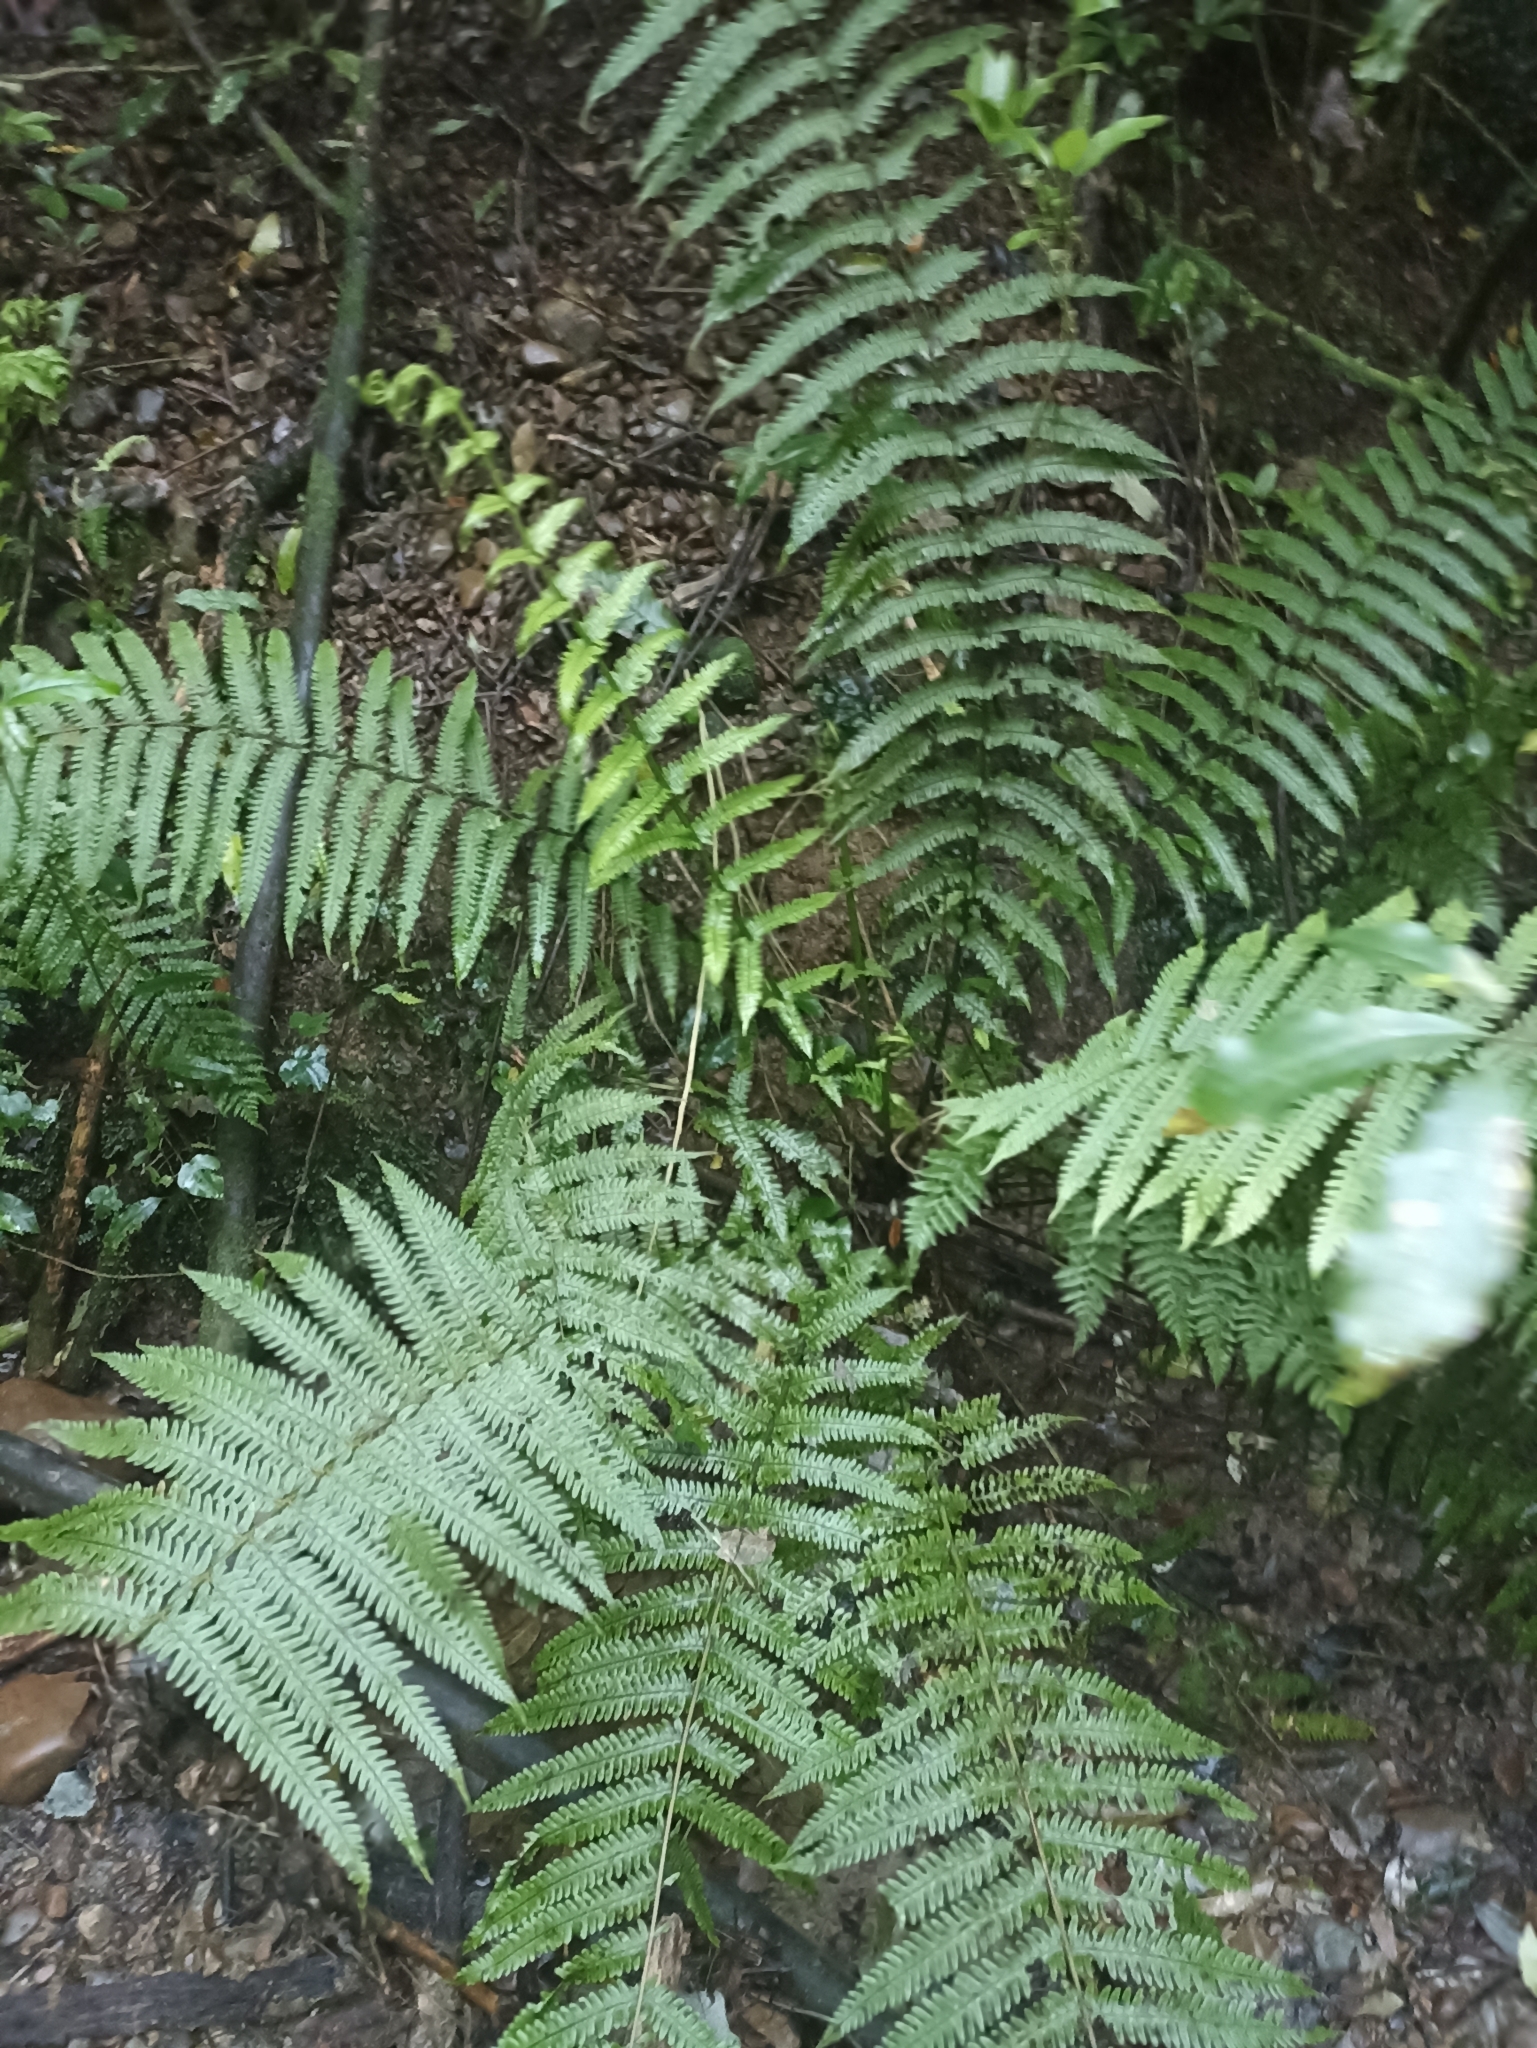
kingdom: Plantae
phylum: Tracheophyta
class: Polypodiopsida
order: Polypodiales
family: Thelypteridaceae
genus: Pakau
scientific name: Pakau pennigera
